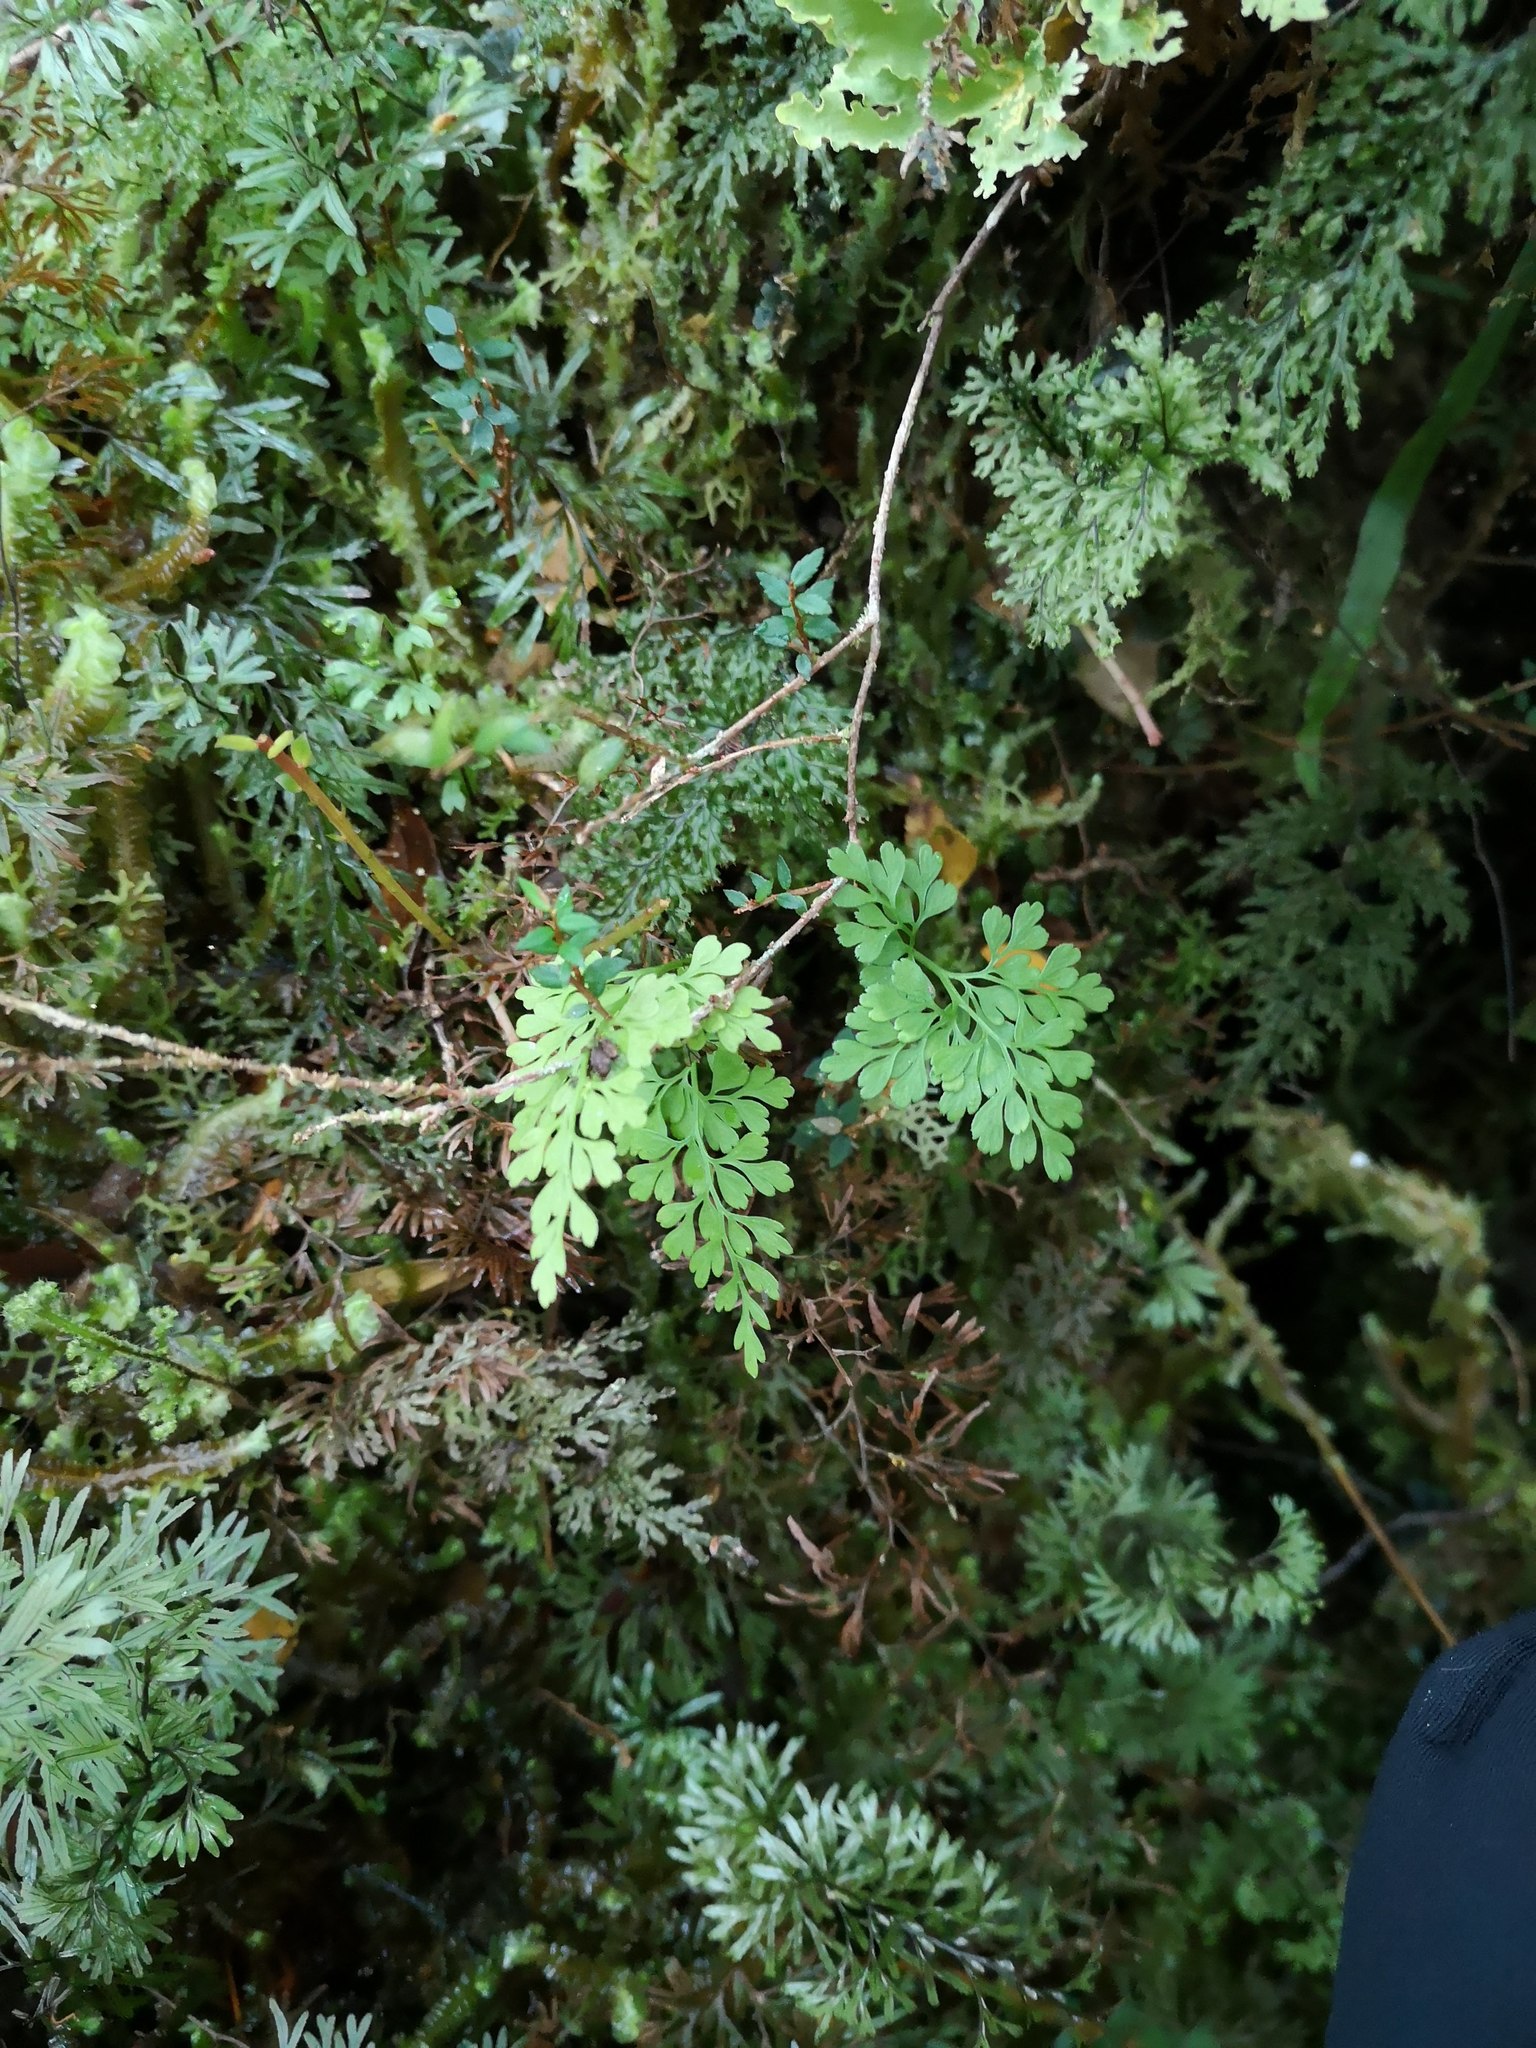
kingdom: Plantae
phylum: Tracheophyta
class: Polypodiopsida
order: Polypodiales
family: Aspleniaceae
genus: Asplenium
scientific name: Asplenium dareoides
